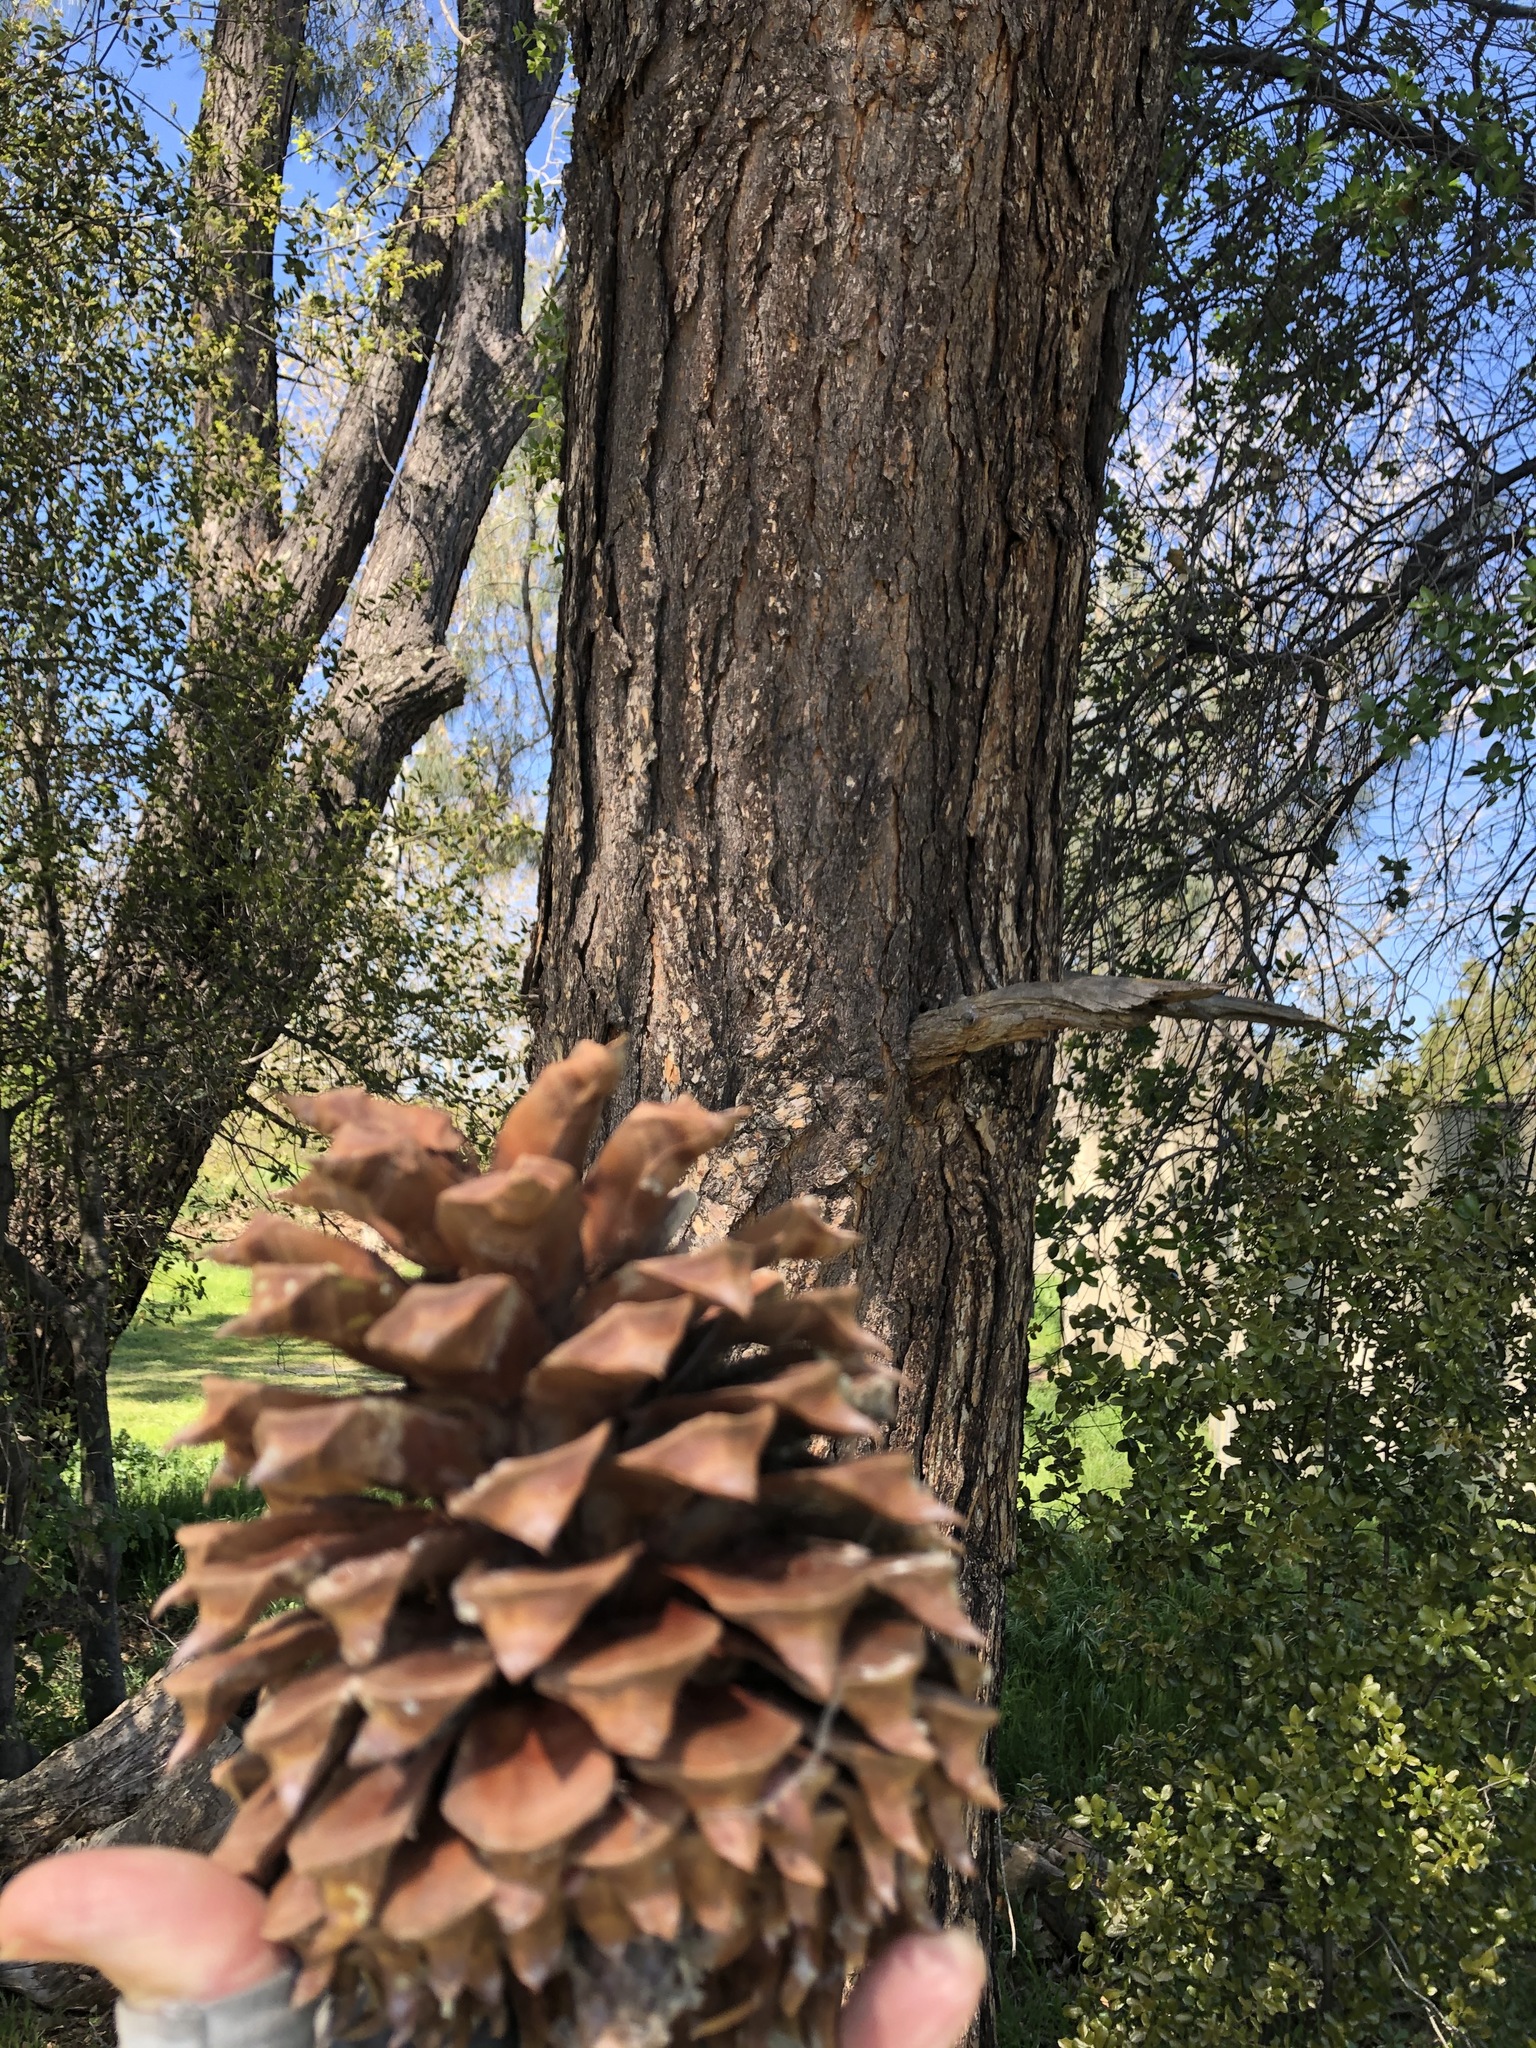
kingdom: Plantae
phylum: Tracheophyta
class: Pinopsida
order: Pinales
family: Pinaceae
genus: Pinus
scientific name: Pinus sabiniana
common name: Bull pine
